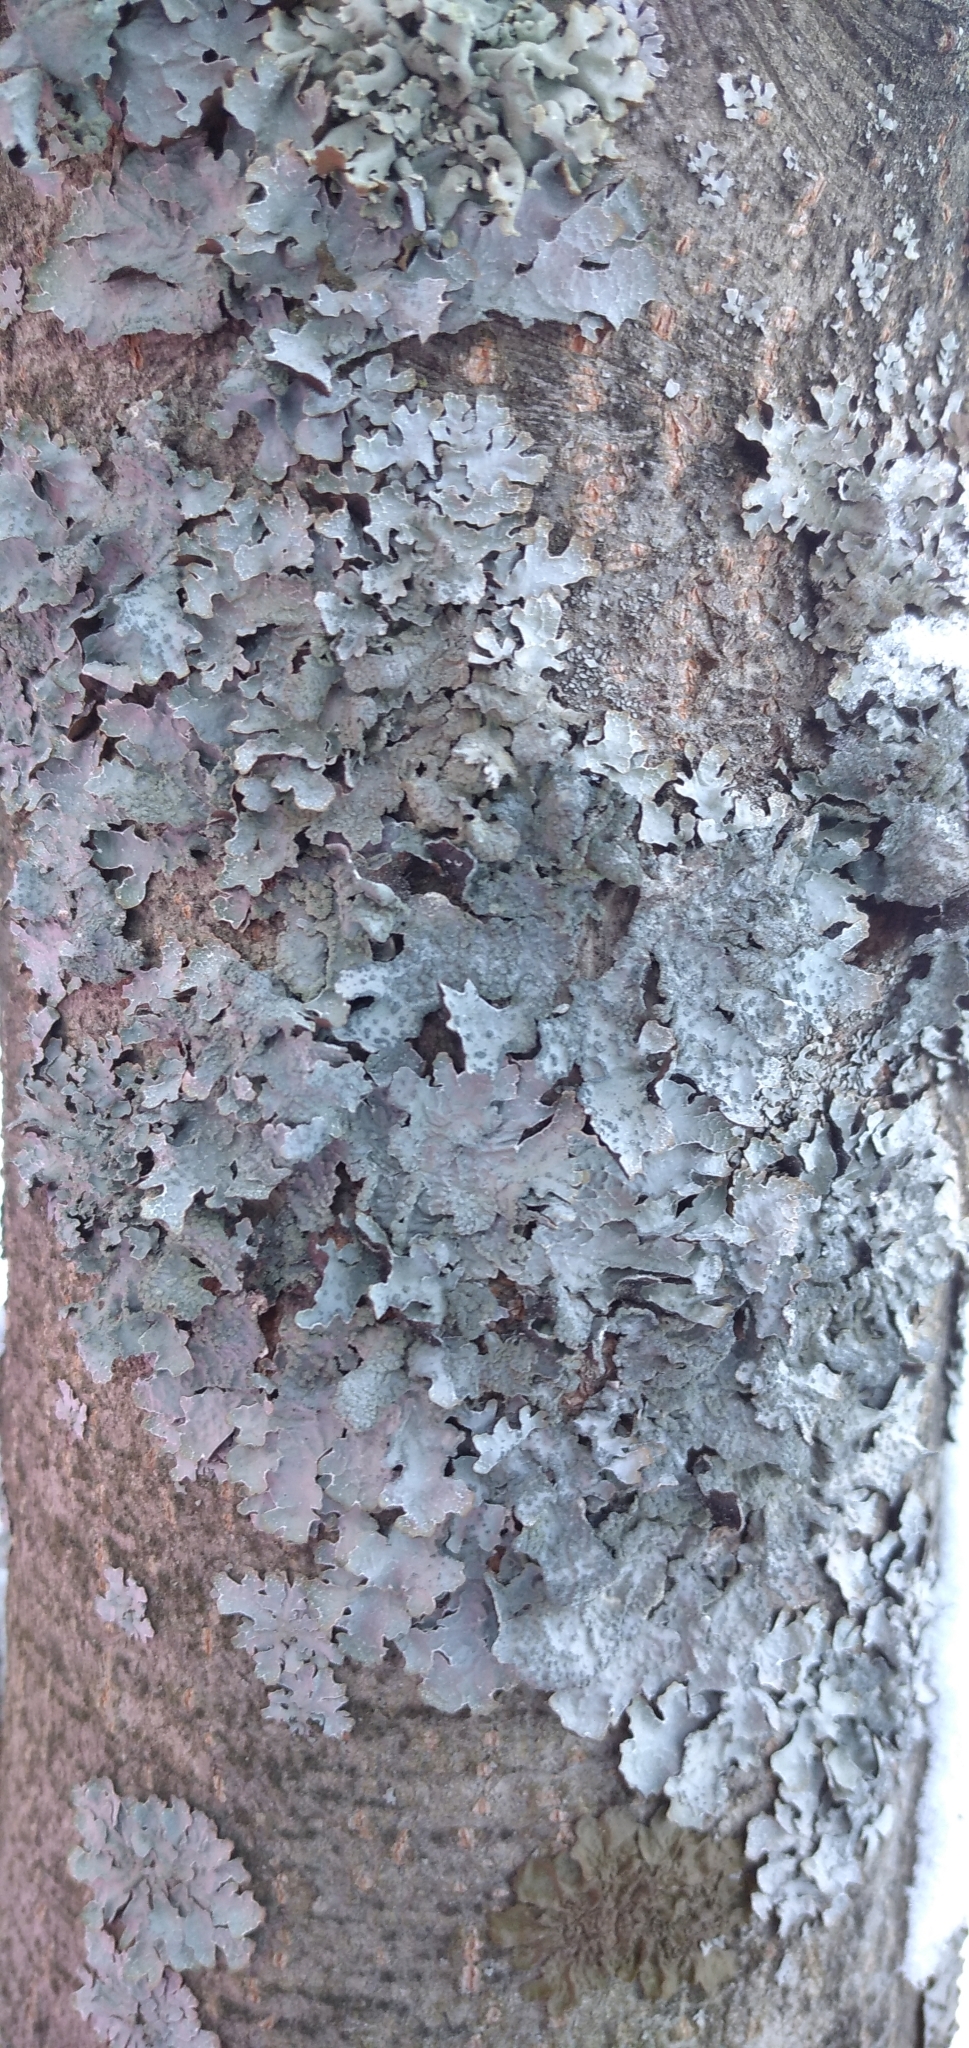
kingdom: Fungi
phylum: Ascomycota
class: Lecanoromycetes
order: Lecanorales
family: Parmeliaceae
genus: Parmelia
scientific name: Parmelia sulcata
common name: Netted shield lichen
